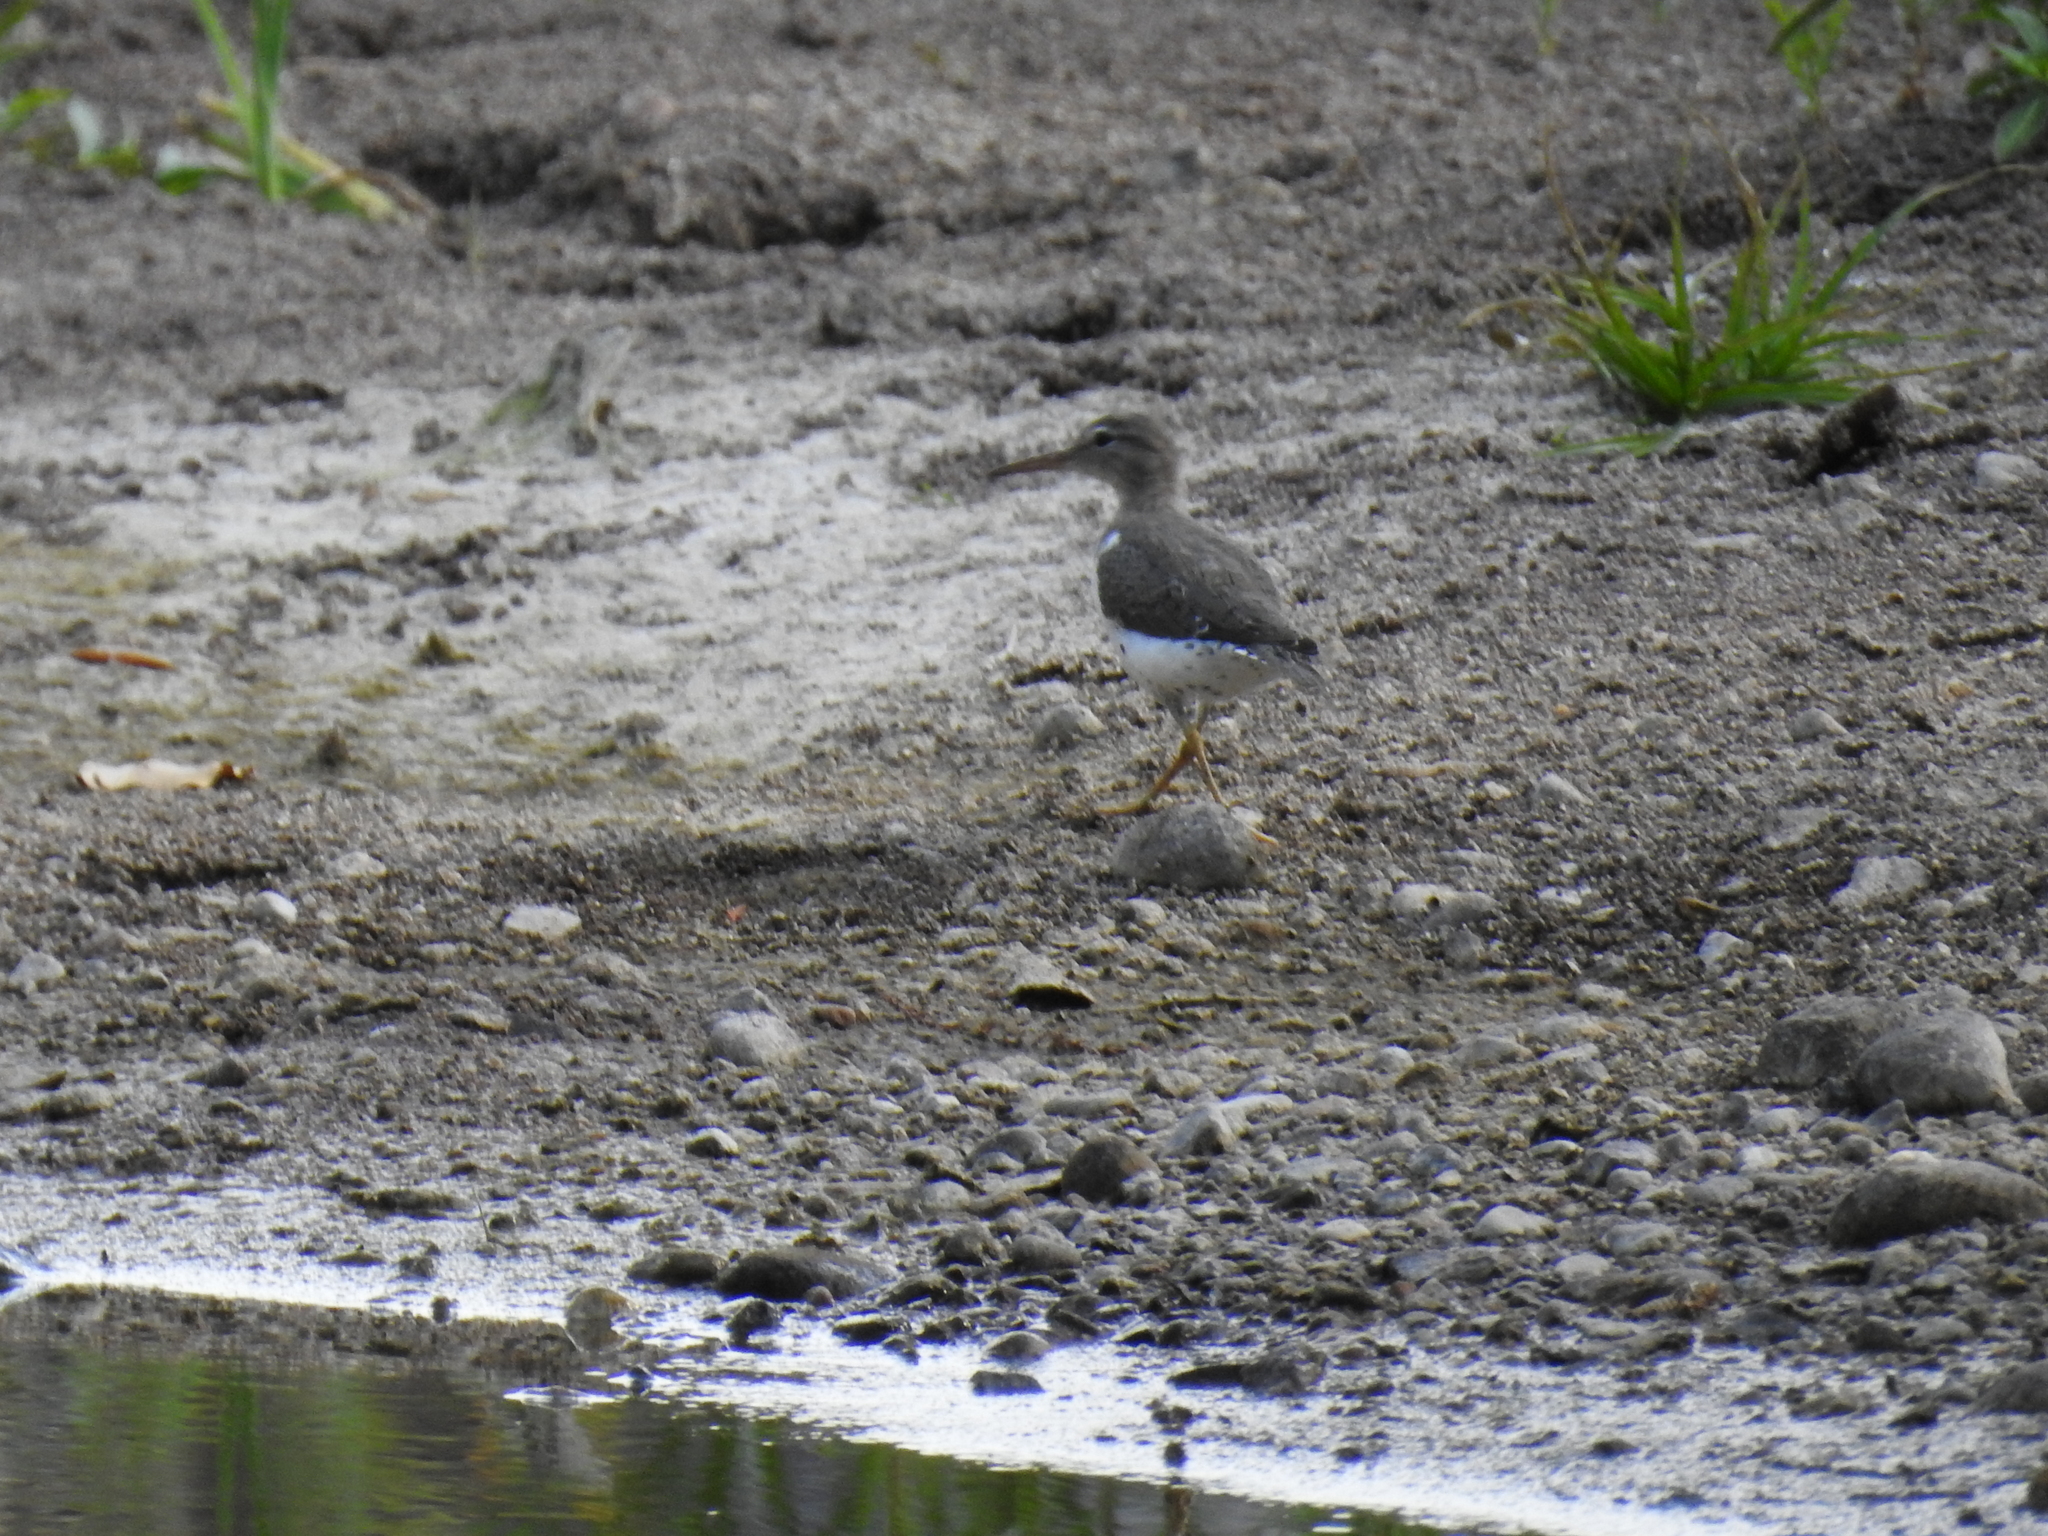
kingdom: Animalia
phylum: Chordata
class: Aves
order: Charadriiformes
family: Scolopacidae
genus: Actitis
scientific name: Actitis macularius
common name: Spotted sandpiper
